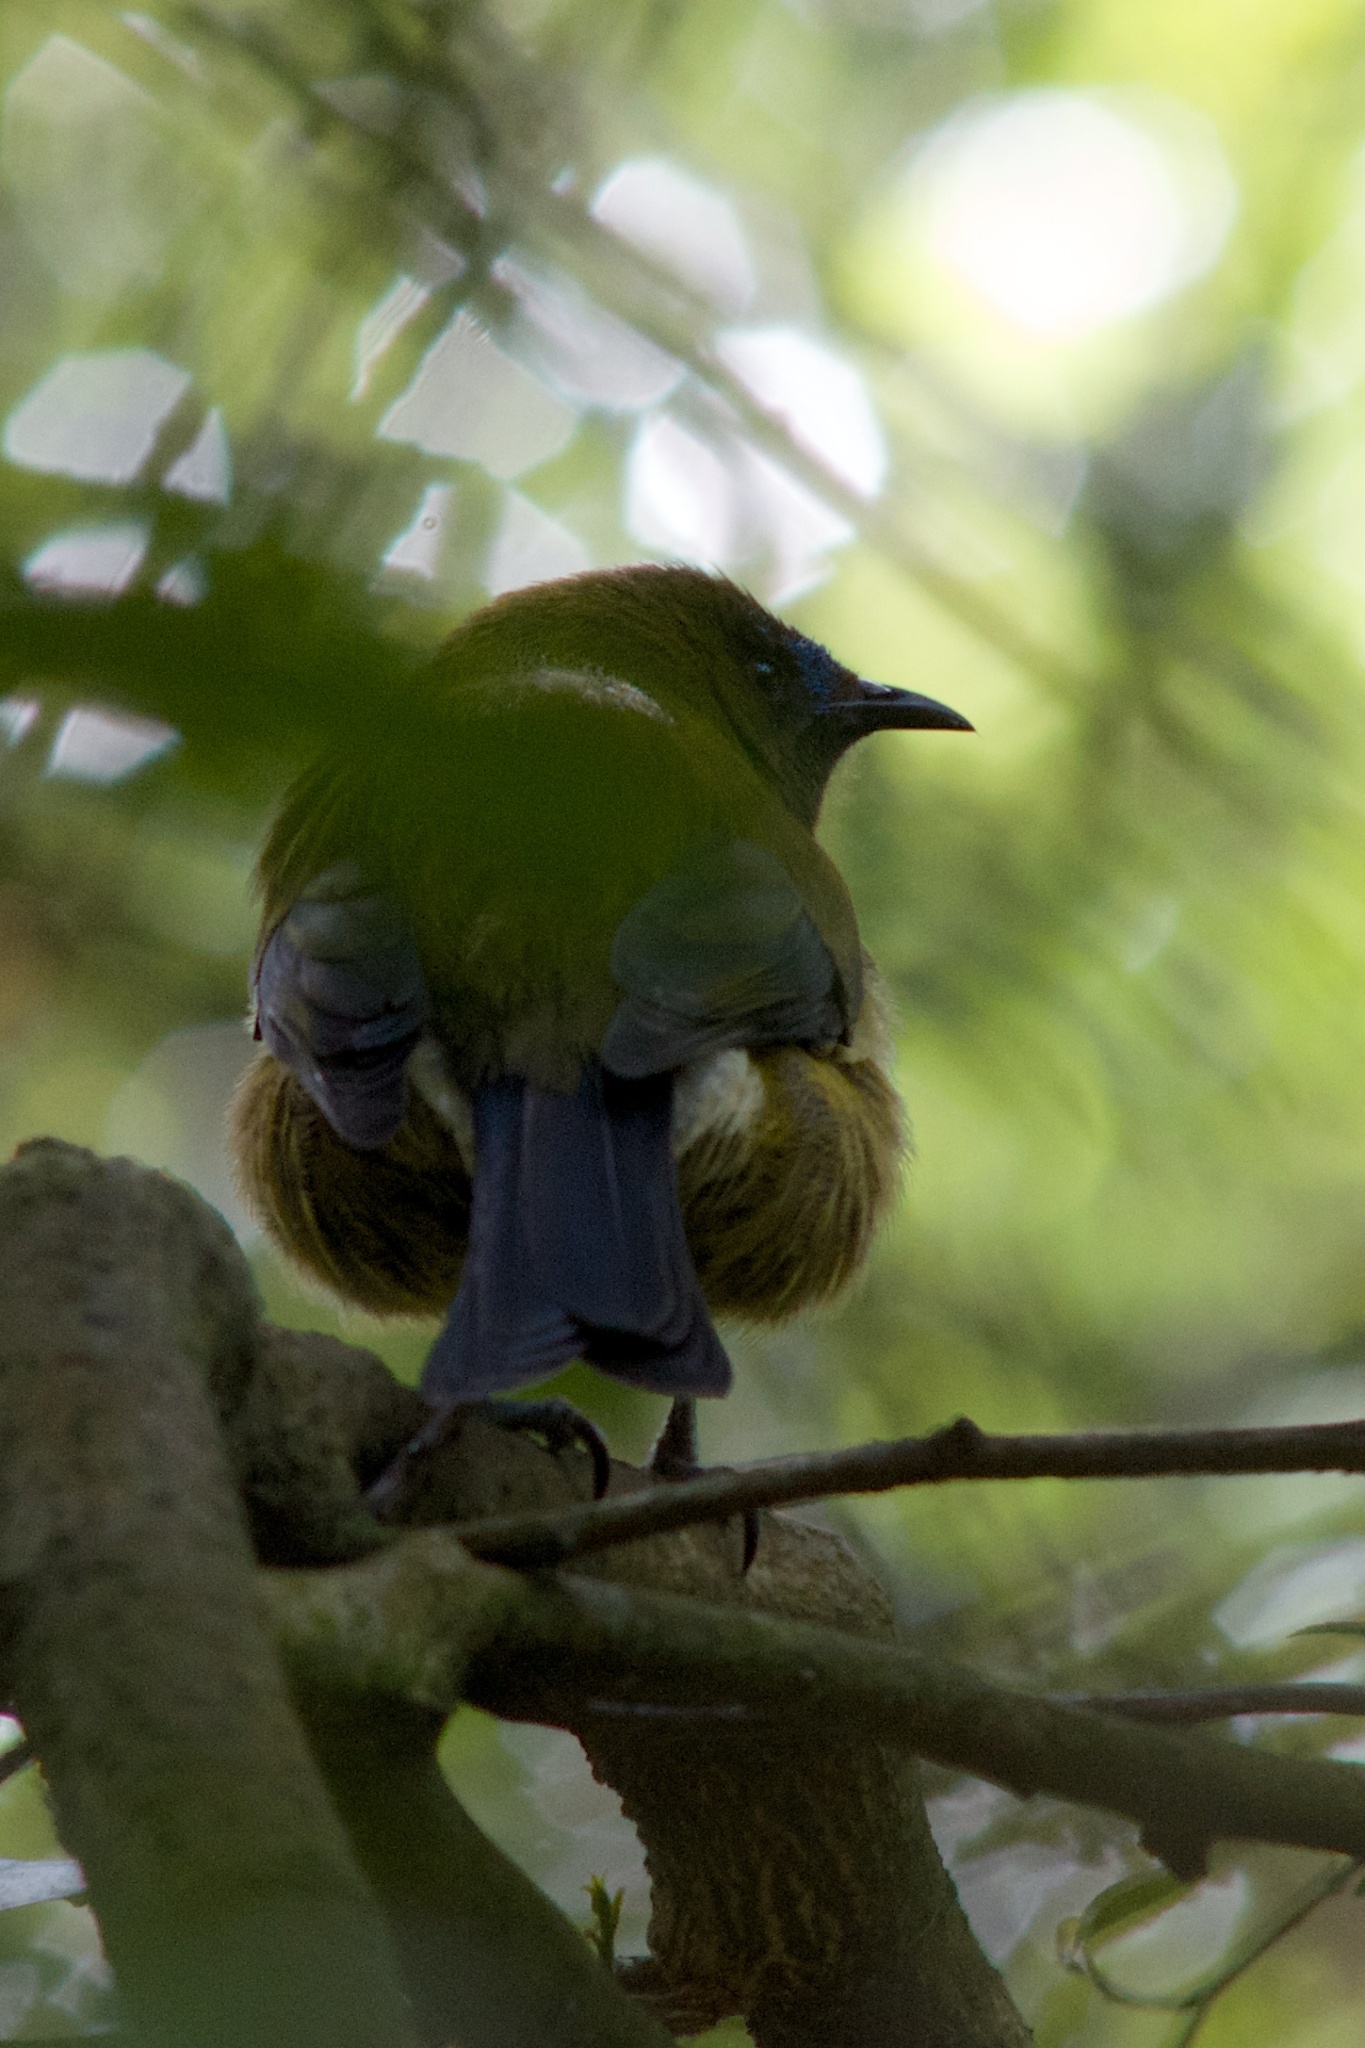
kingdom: Animalia
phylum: Chordata
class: Aves
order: Passeriformes
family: Meliphagidae
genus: Anthornis
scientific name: Anthornis melanura
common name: New zealand bellbird
